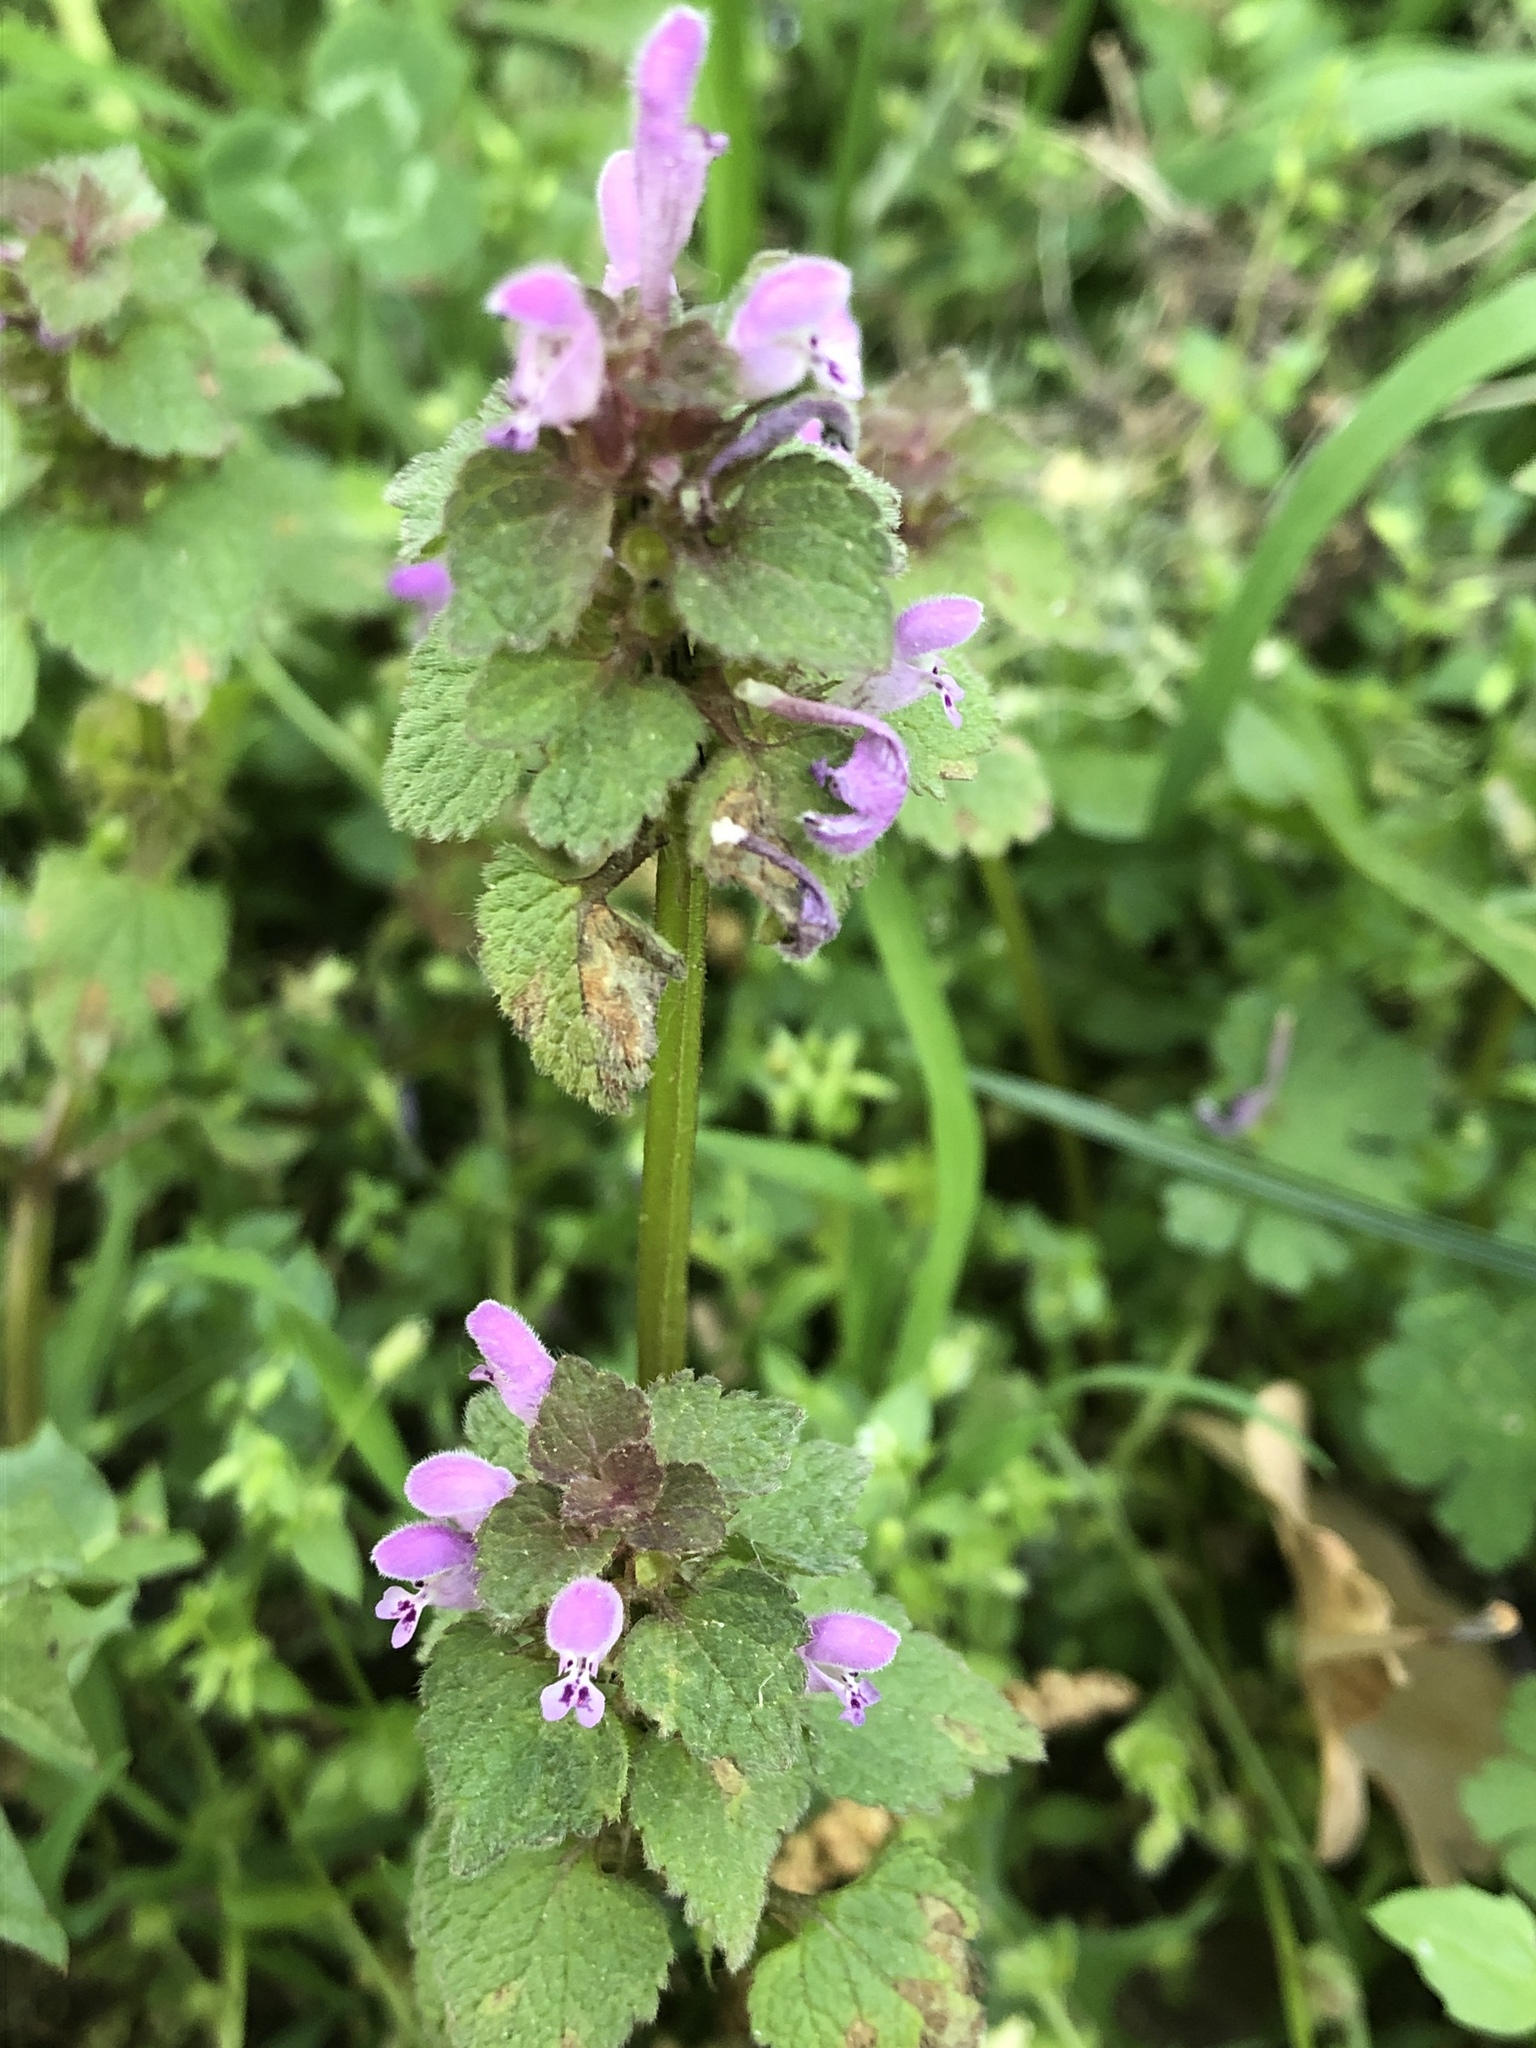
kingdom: Plantae
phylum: Tracheophyta
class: Magnoliopsida
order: Lamiales
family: Lamiaceae
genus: Lamium
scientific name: Lamium purpureum
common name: Red dead-nettle
